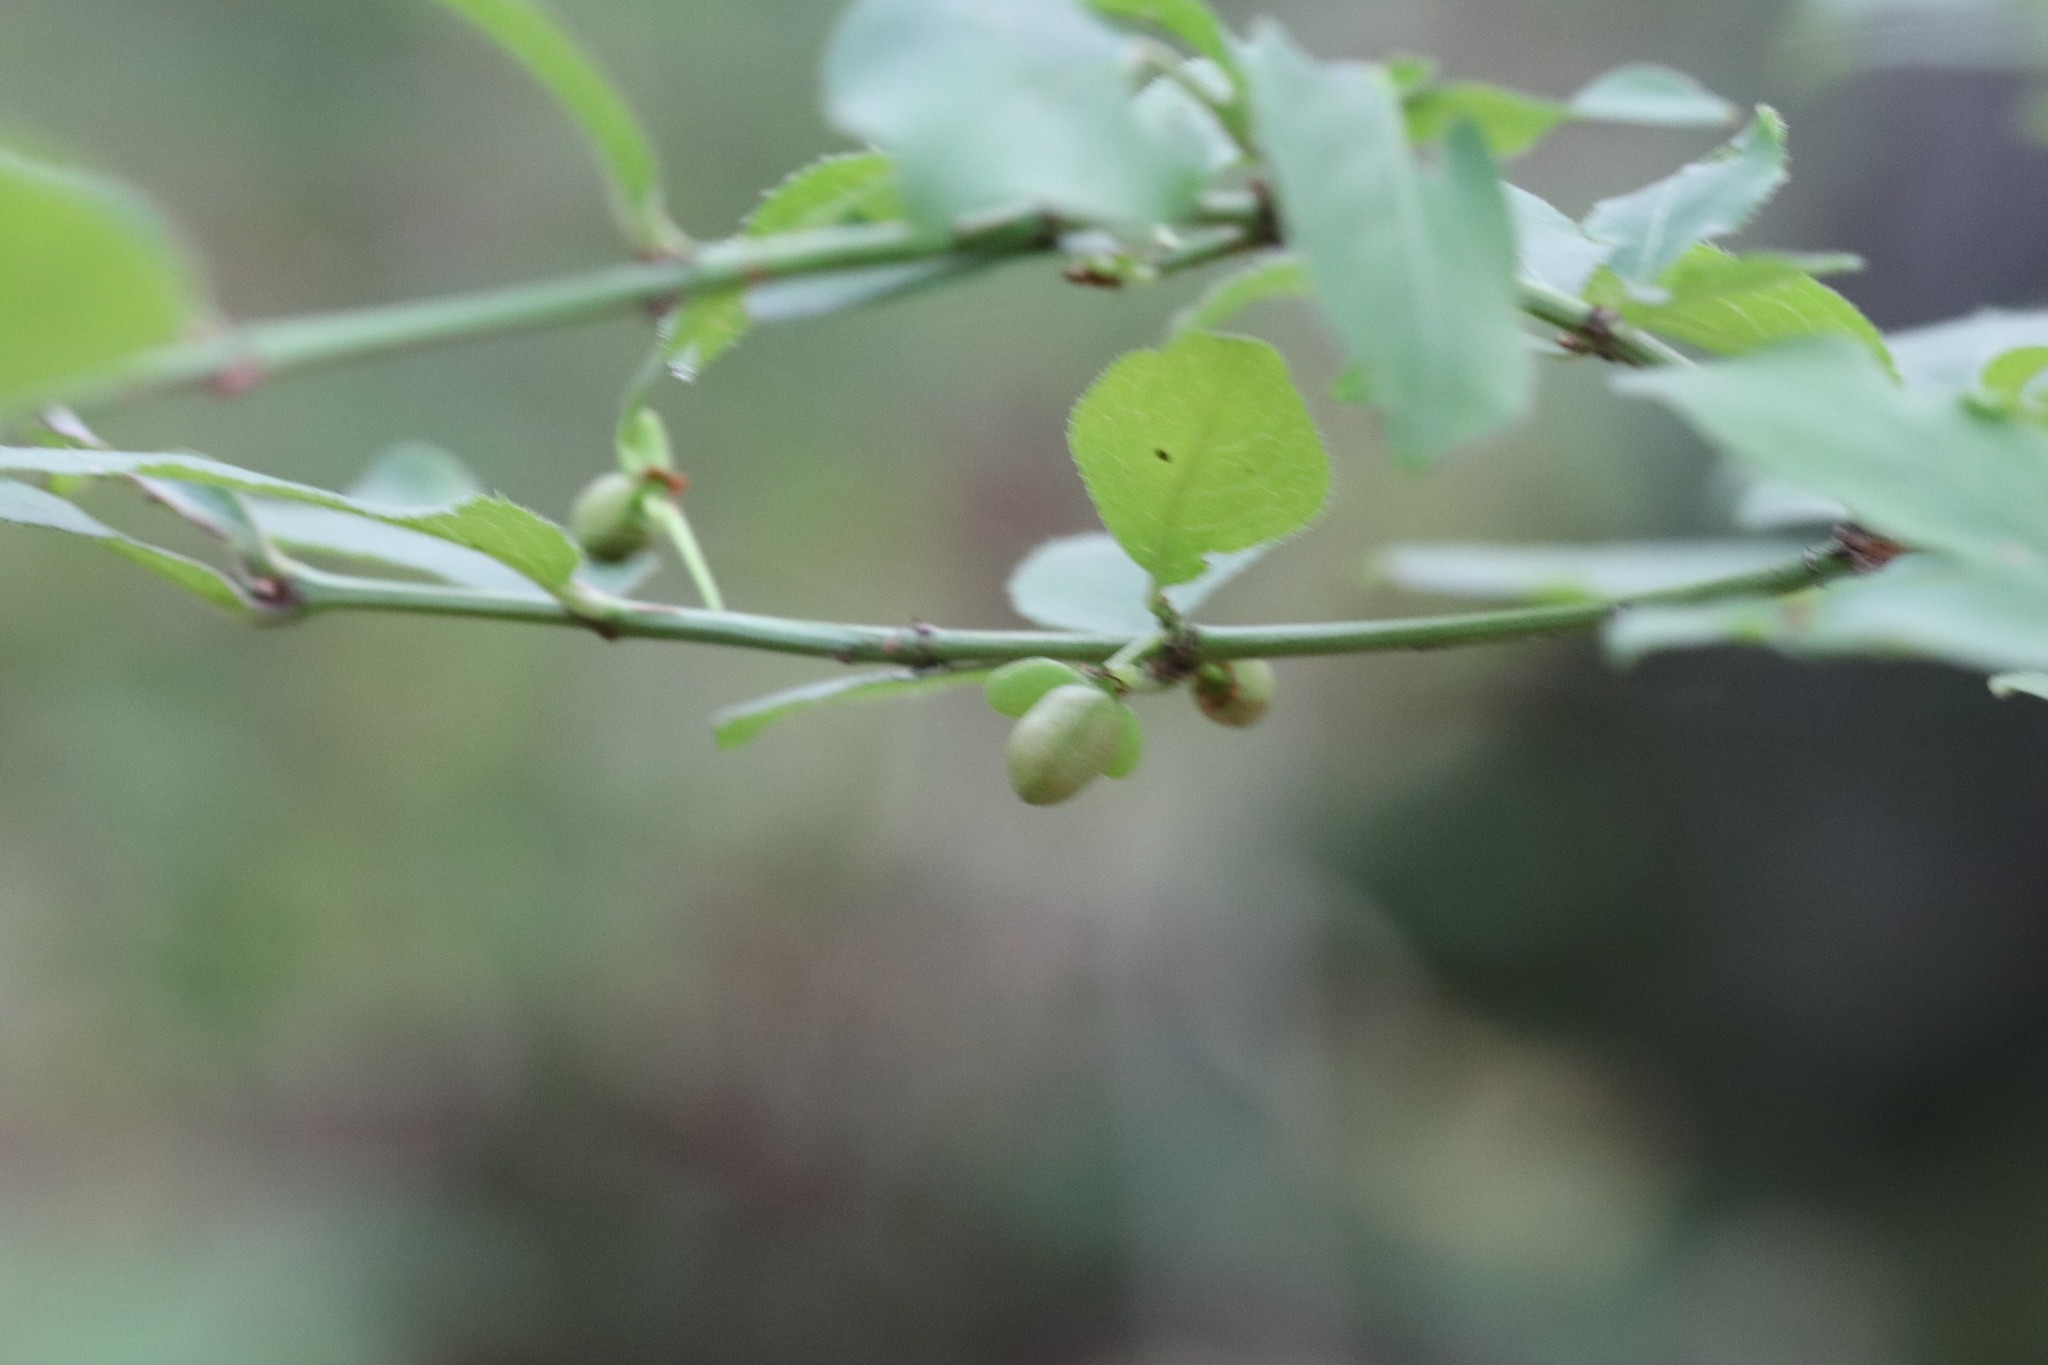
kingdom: Plantae
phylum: Tracheophyta
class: Magnoliopsida
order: Celastrales
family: Celastraceae
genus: Euonymus
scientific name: Euonymus alatus
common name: Winged euonymus
